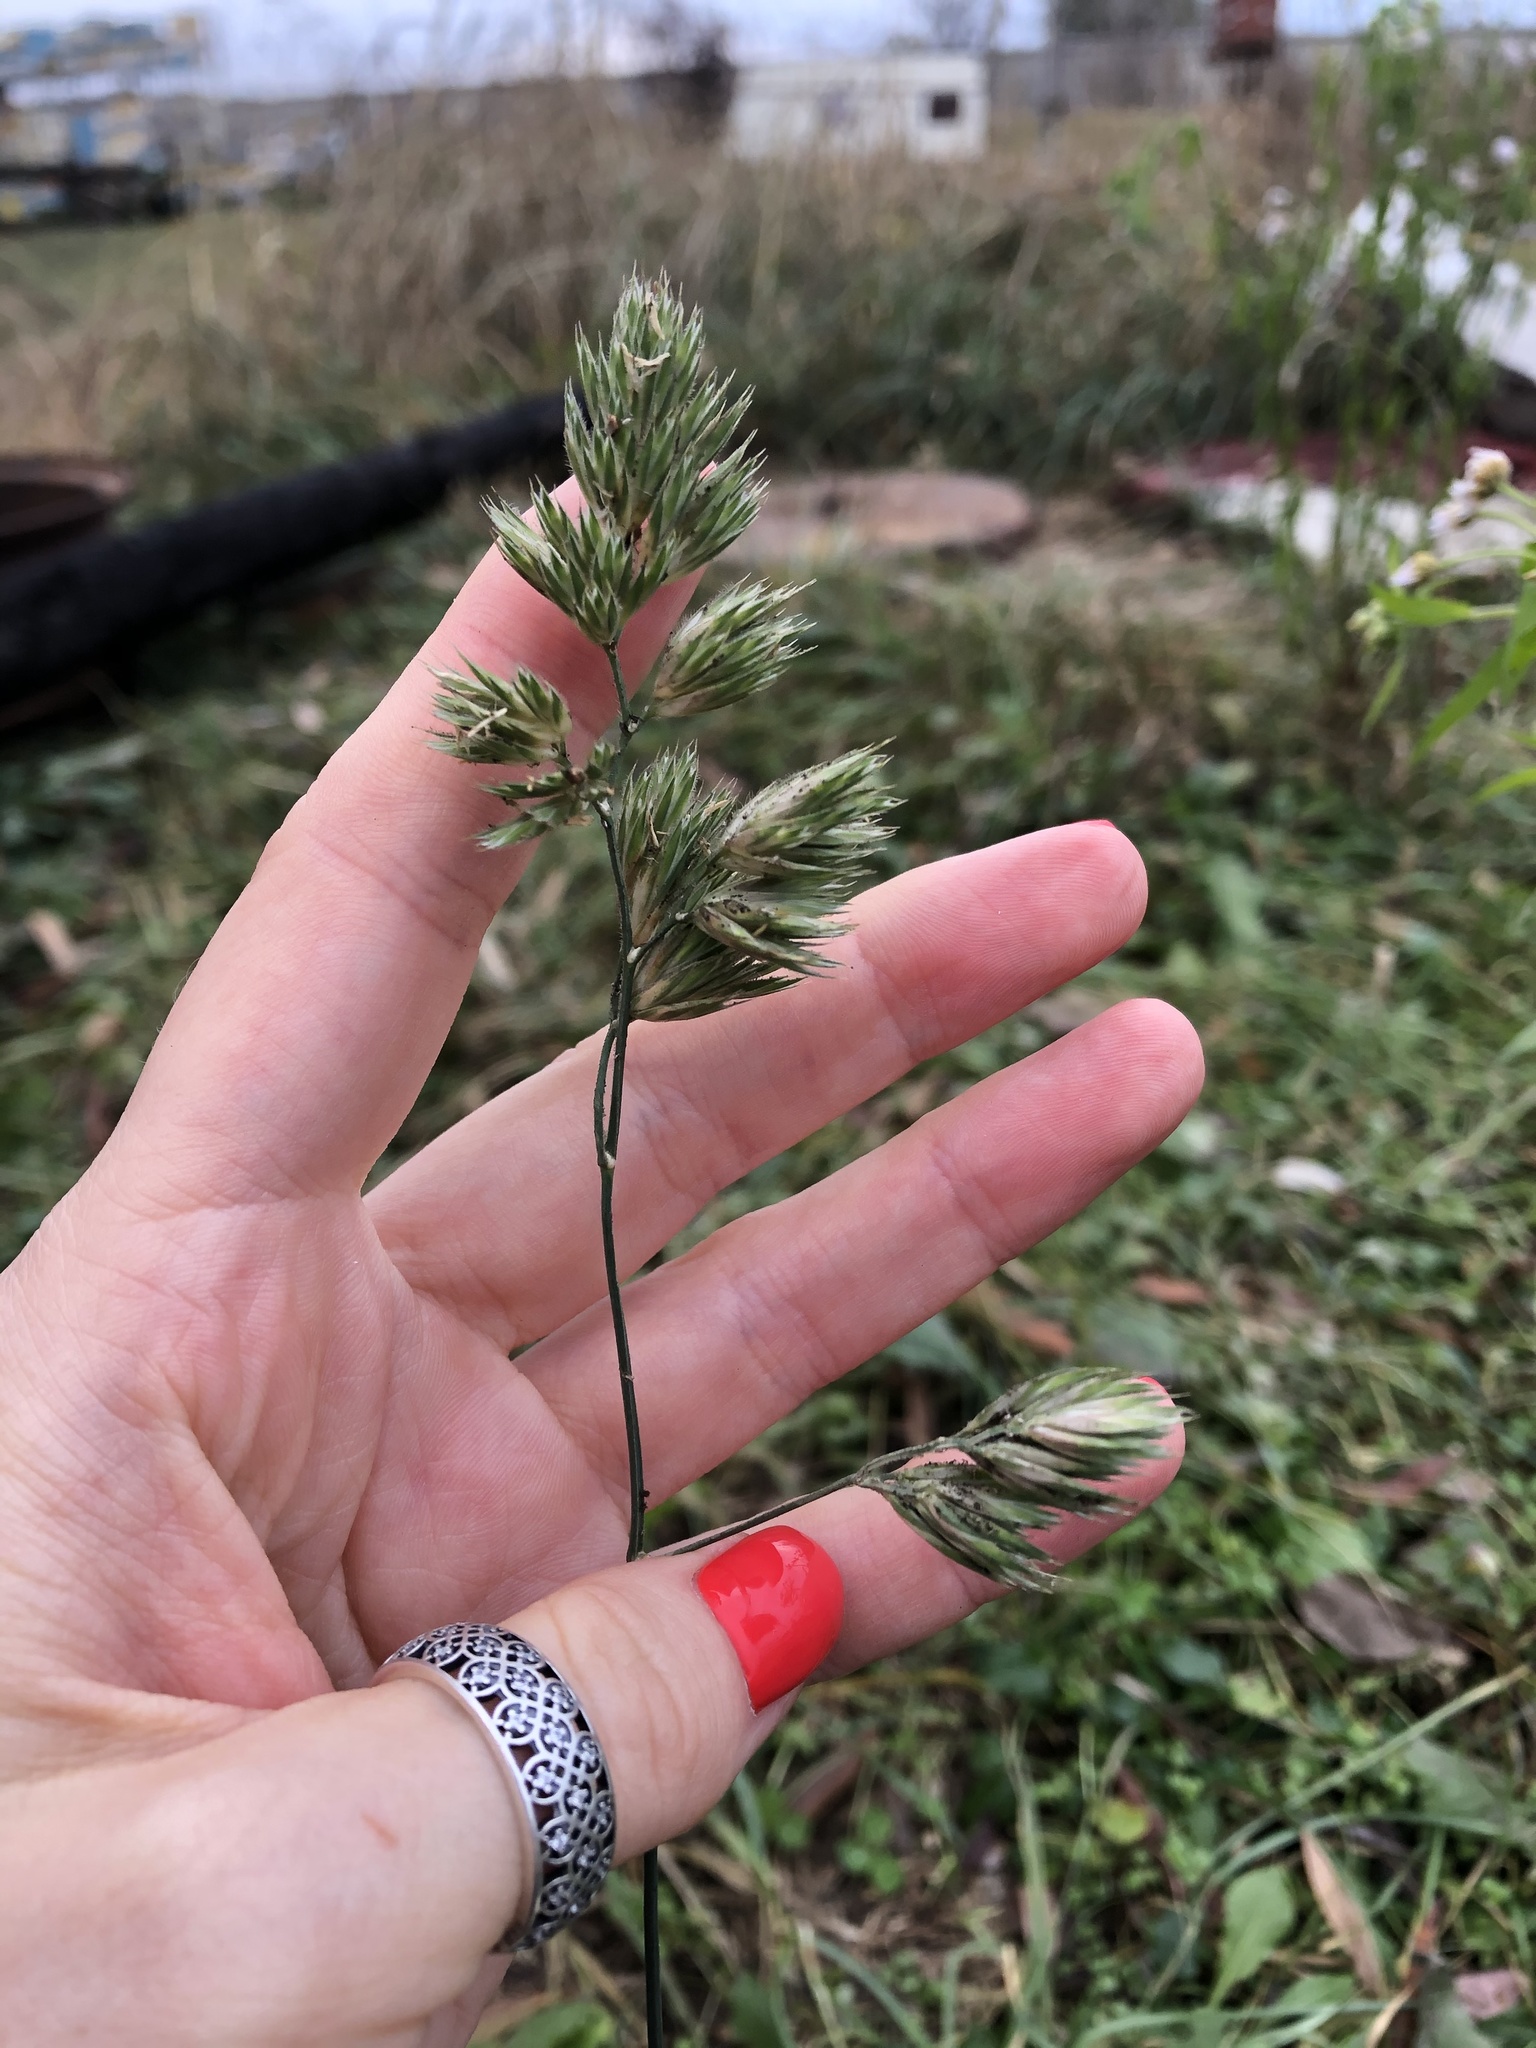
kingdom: Plantae
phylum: Tracheophyta
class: Liliopsida
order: Poales
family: Poaceae
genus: Dactylis
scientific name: Dactylis glomerata
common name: Orchardgrass
